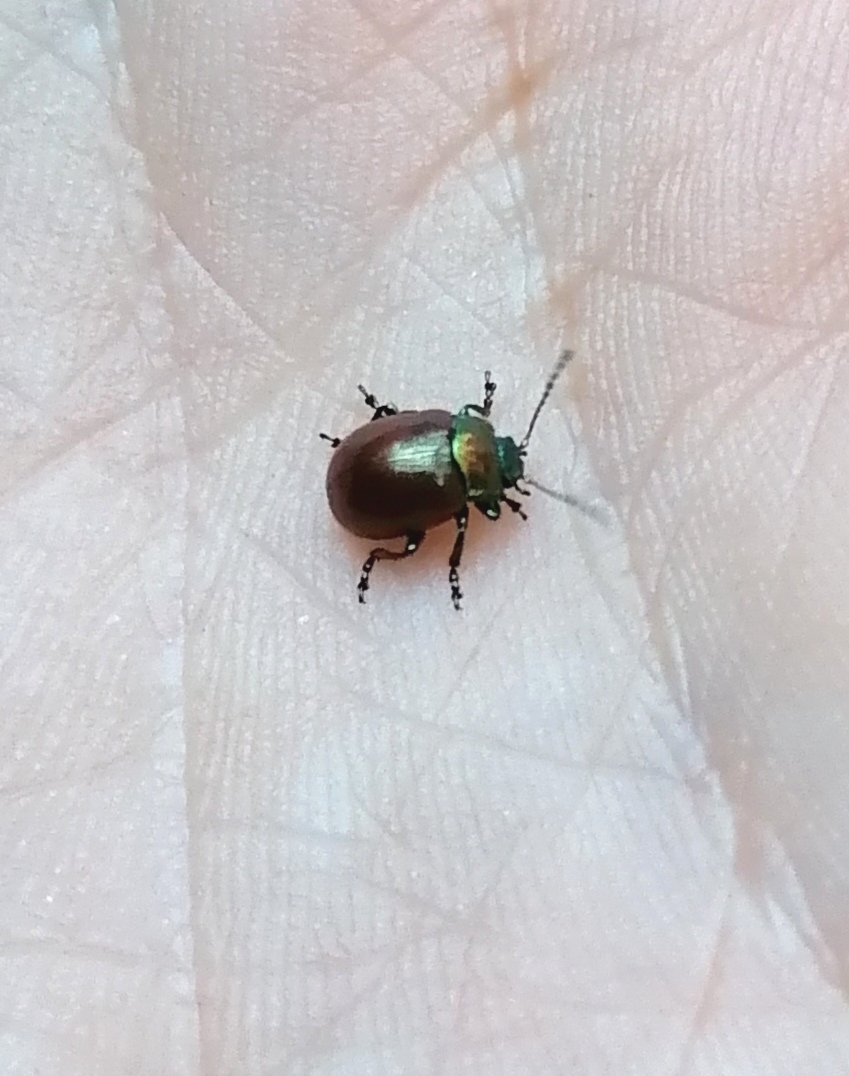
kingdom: Animalia
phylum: Arthropoda
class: Insecta
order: Coleoptera
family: Chrysomelidae
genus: Chrysomela
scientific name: Chrysomela polita
